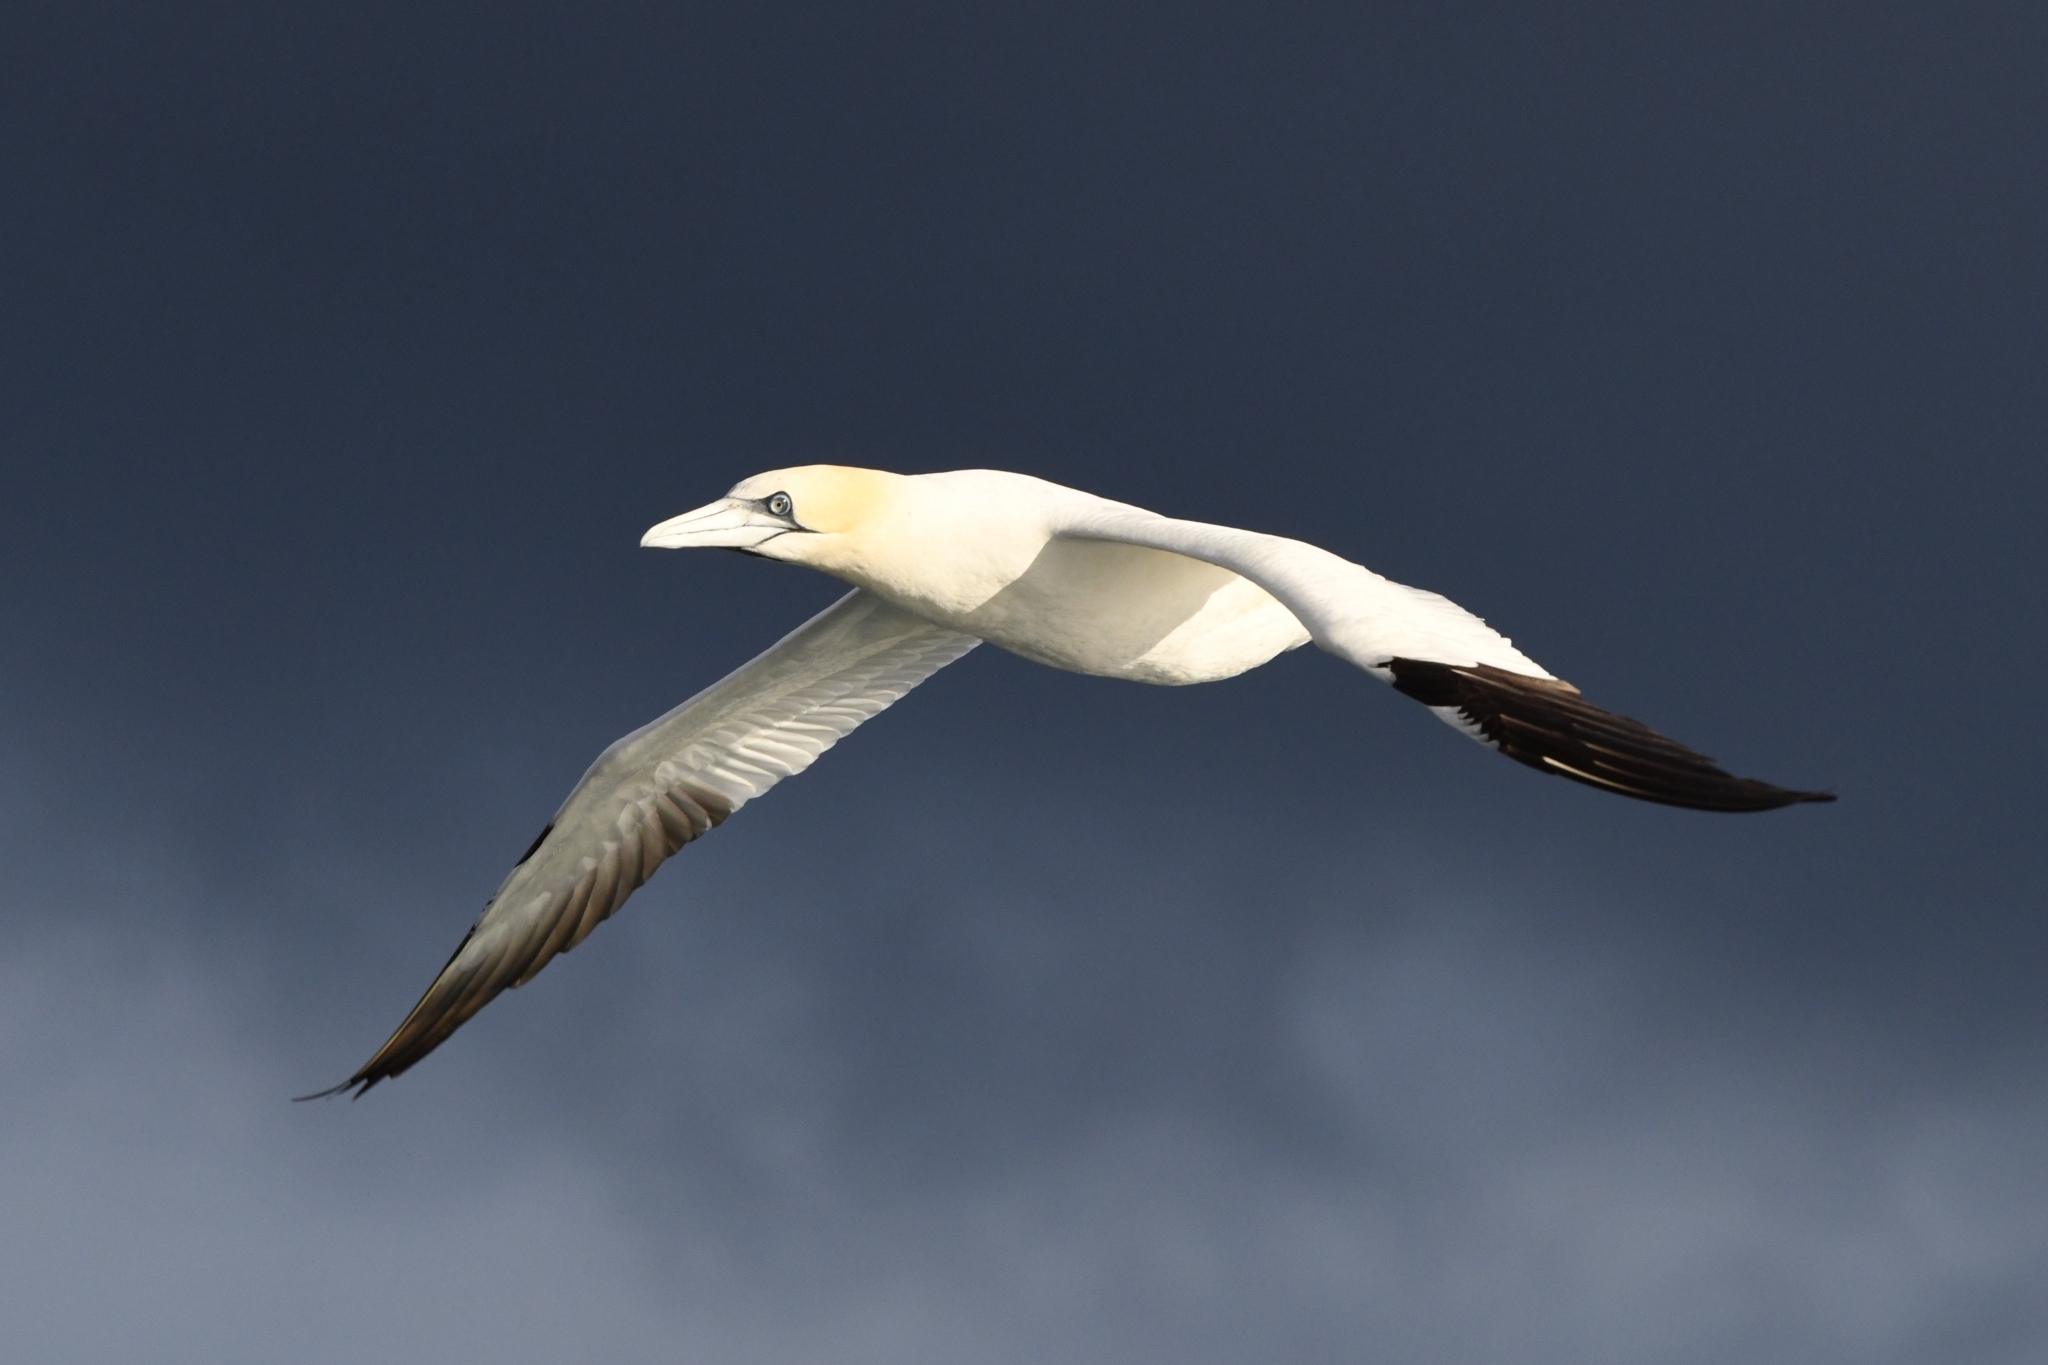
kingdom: Animalia
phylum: Chordata
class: Aves
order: Suliformes
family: Sulidae
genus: Morus
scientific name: Morus bassanus
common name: Northern gannet
